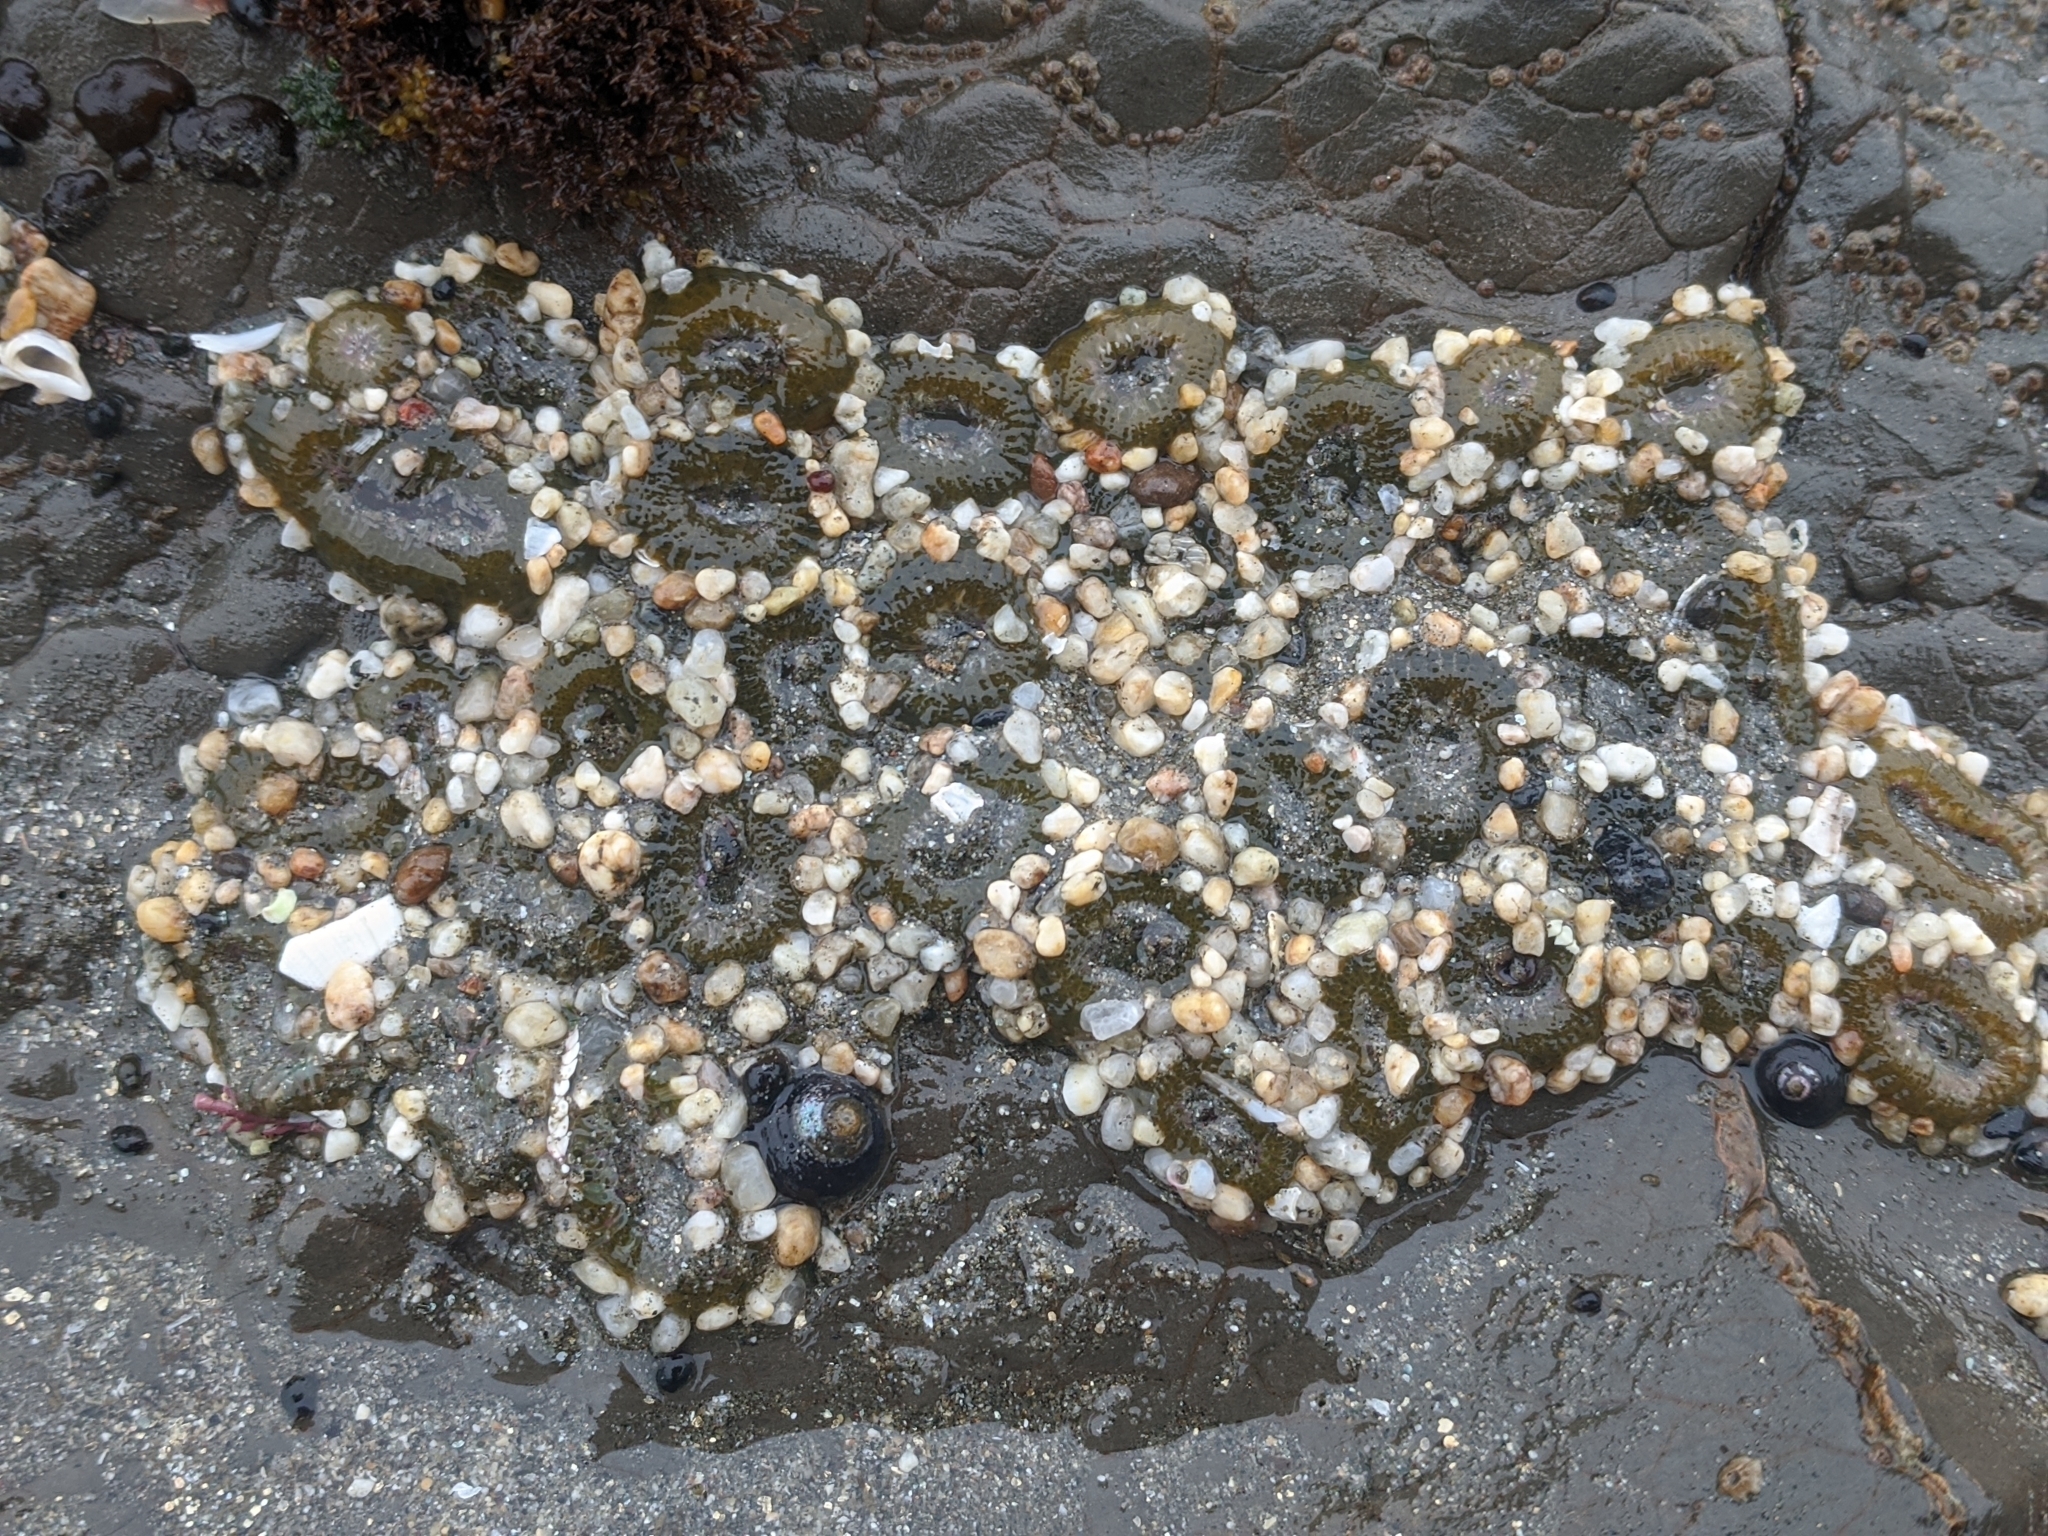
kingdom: Animalia
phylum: Cnidaria
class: Anthozoa
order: Actiniaria
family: Actiniidae
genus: Anthopleura
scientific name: Anthopleura elegantissima
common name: Clonal anemone
